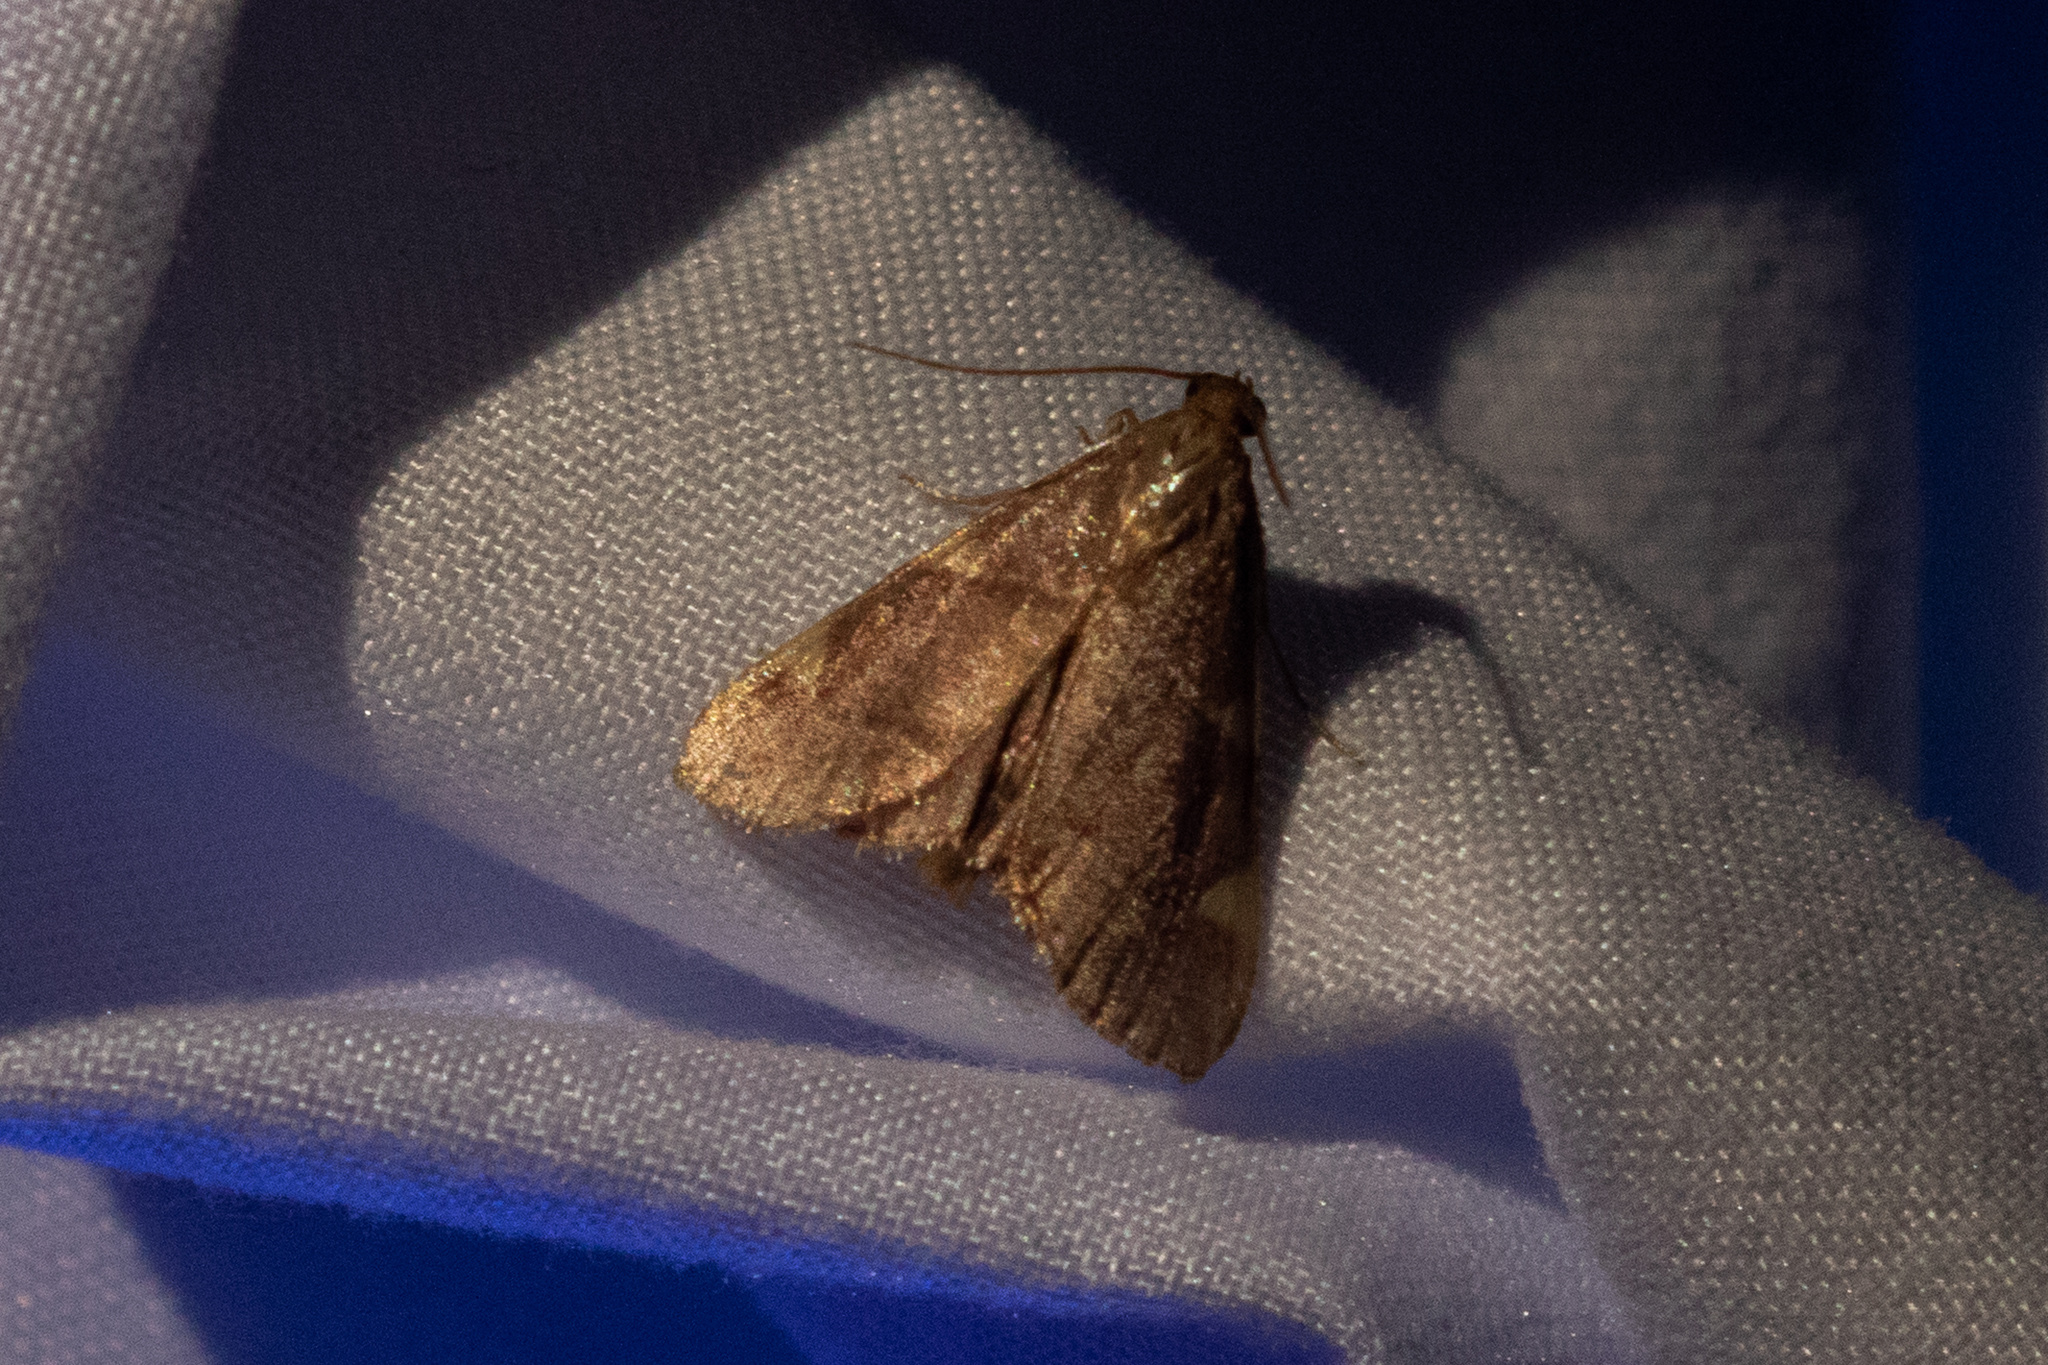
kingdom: Animalia
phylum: Arthropoda
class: Insecta
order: Lepidoptera
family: Pyralidae
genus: Hypsopygia
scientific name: Hypsopygia olinalis
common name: Yellow-fringed dolichomia moth
